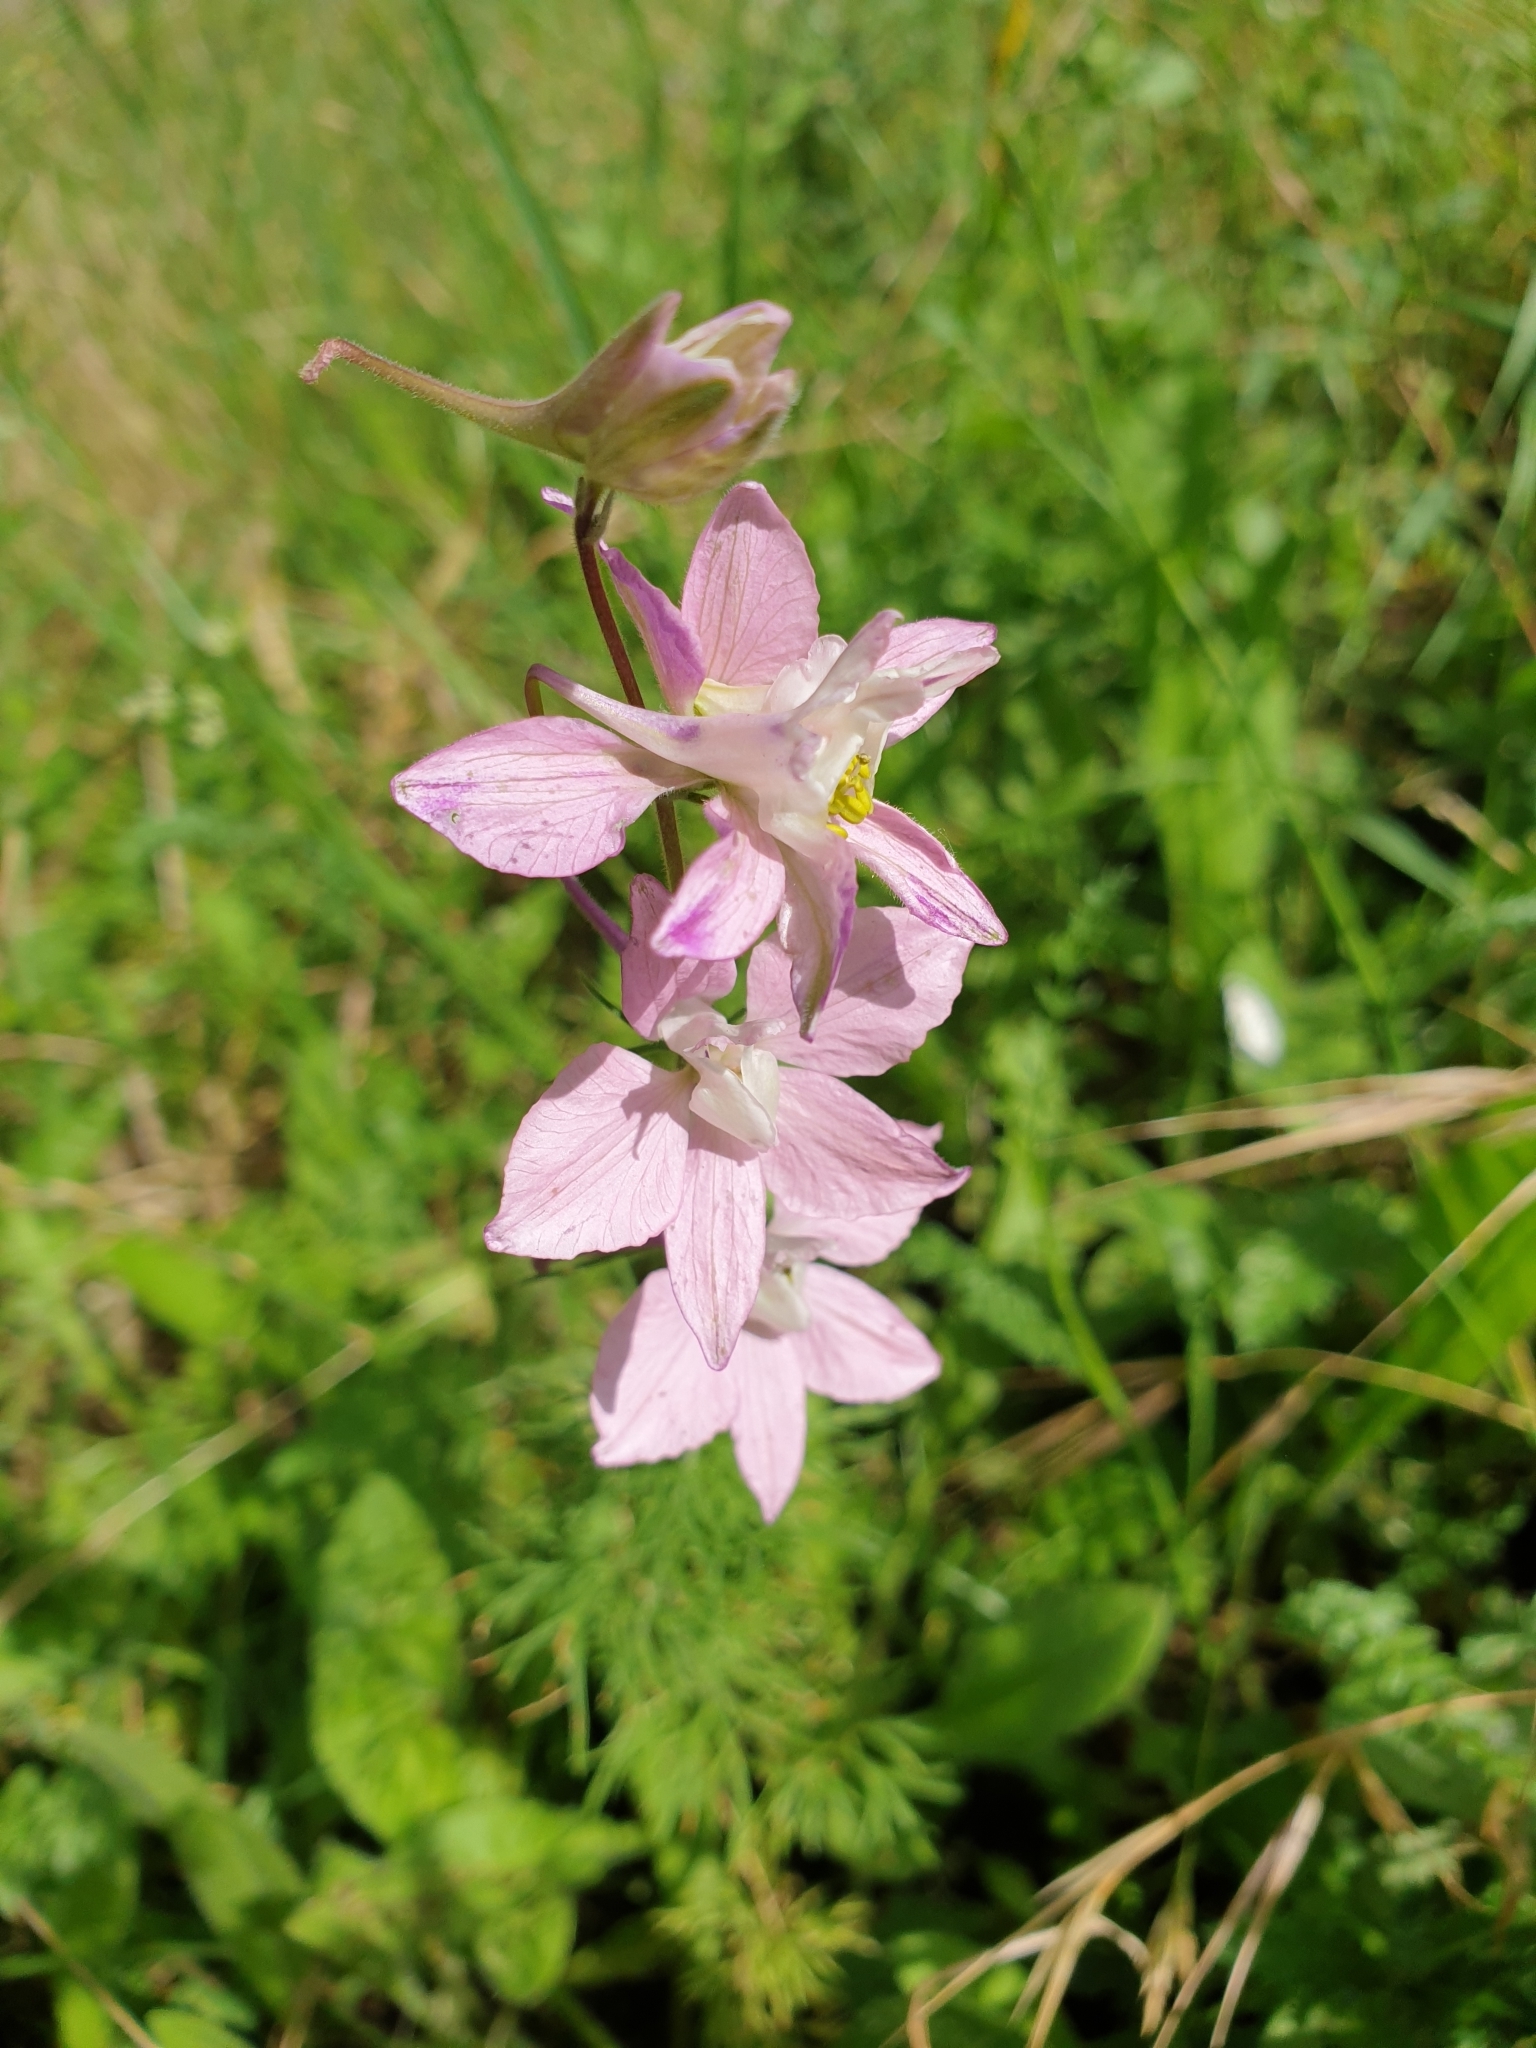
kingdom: Plantae
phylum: Tracheophyta
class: Magnoliopsida
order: Ranunculales
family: Ranunculaceae
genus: Delphinium
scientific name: Delphinium ajacis
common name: Doubtful knight's-spur
